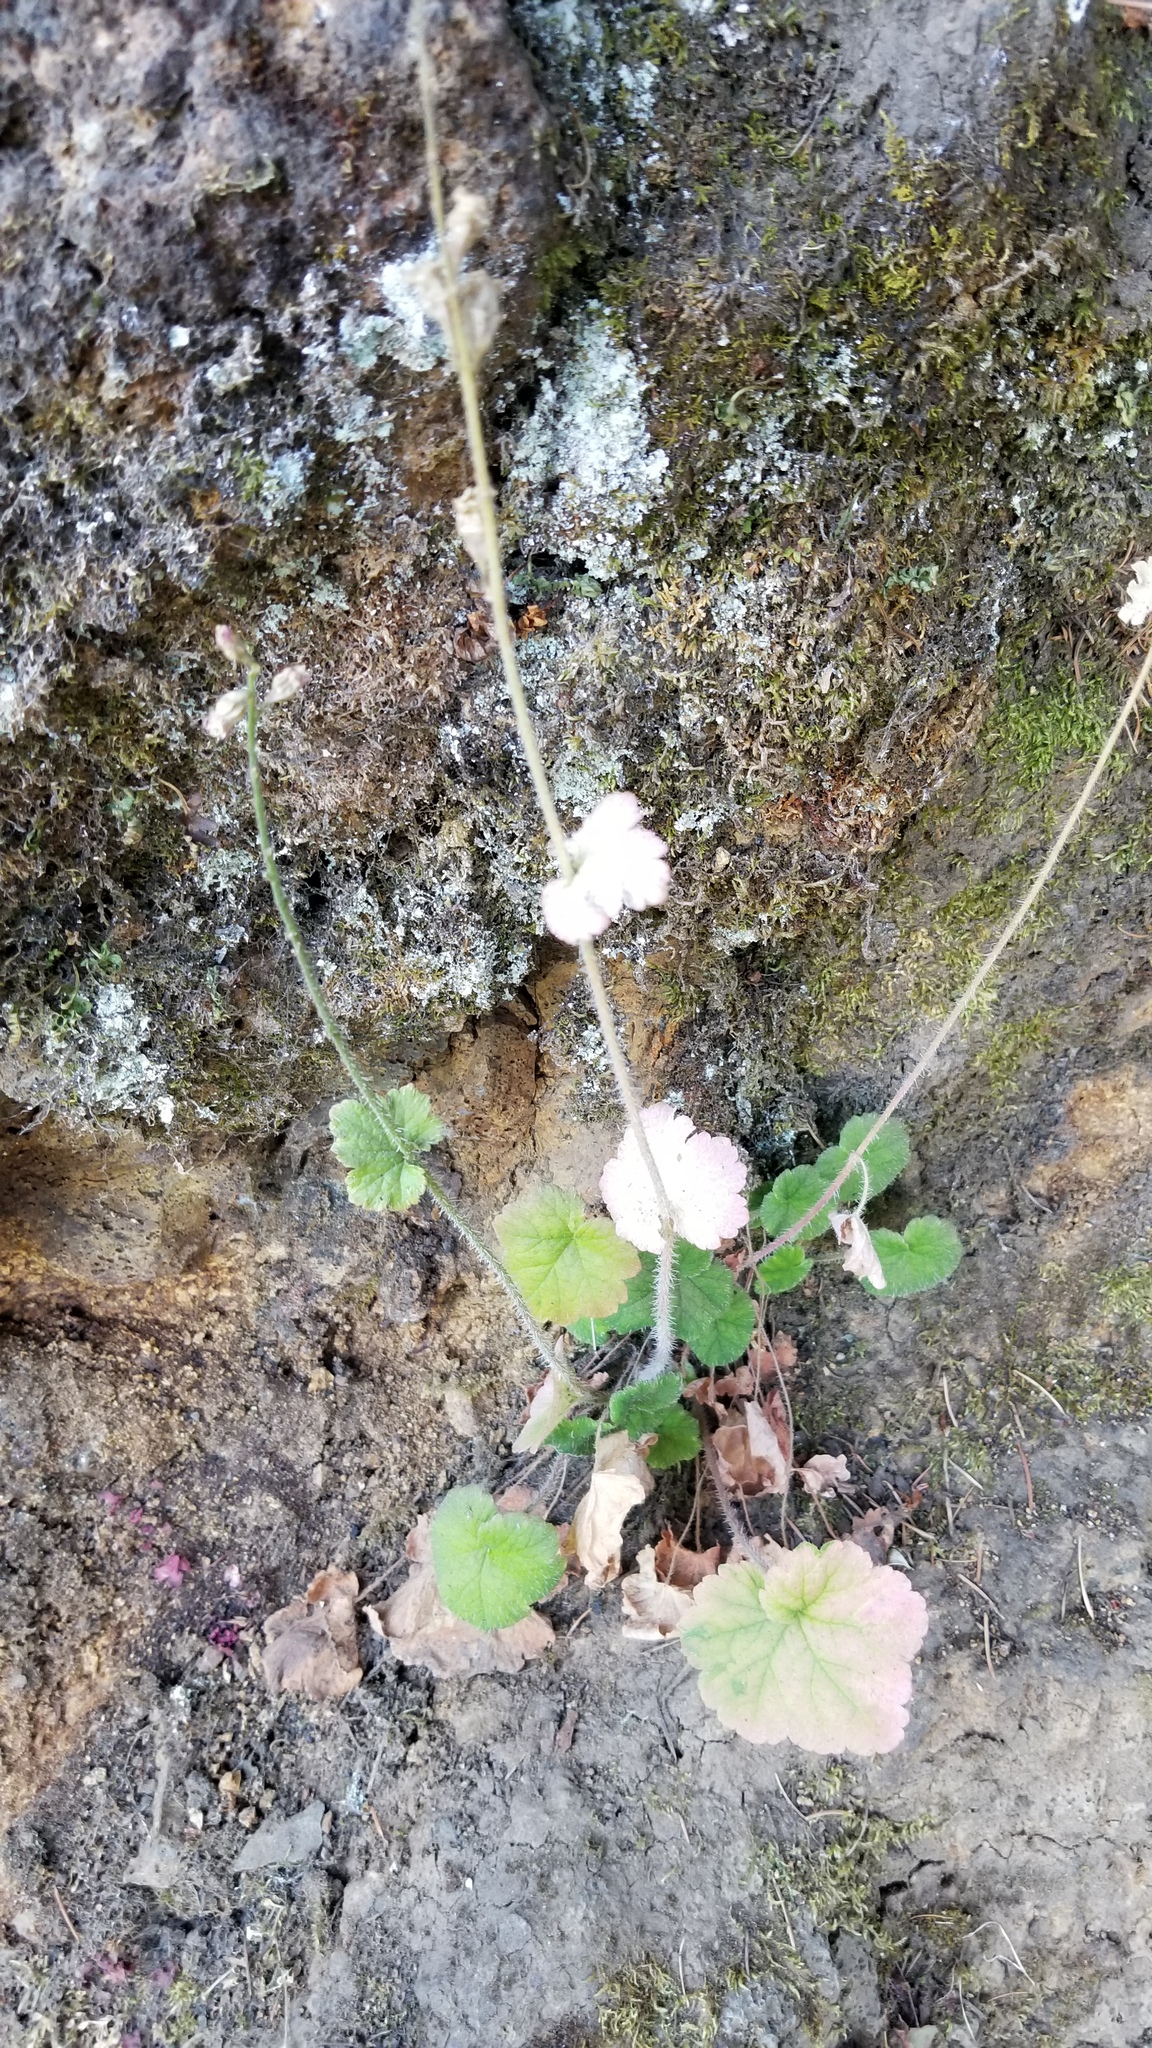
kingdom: Plantae
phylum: Tracheophyta
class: Magnoliopsida
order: Saxifragales
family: Saxifragaceae
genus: Tellima
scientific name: Tellima grandiflora
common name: Fringecups
